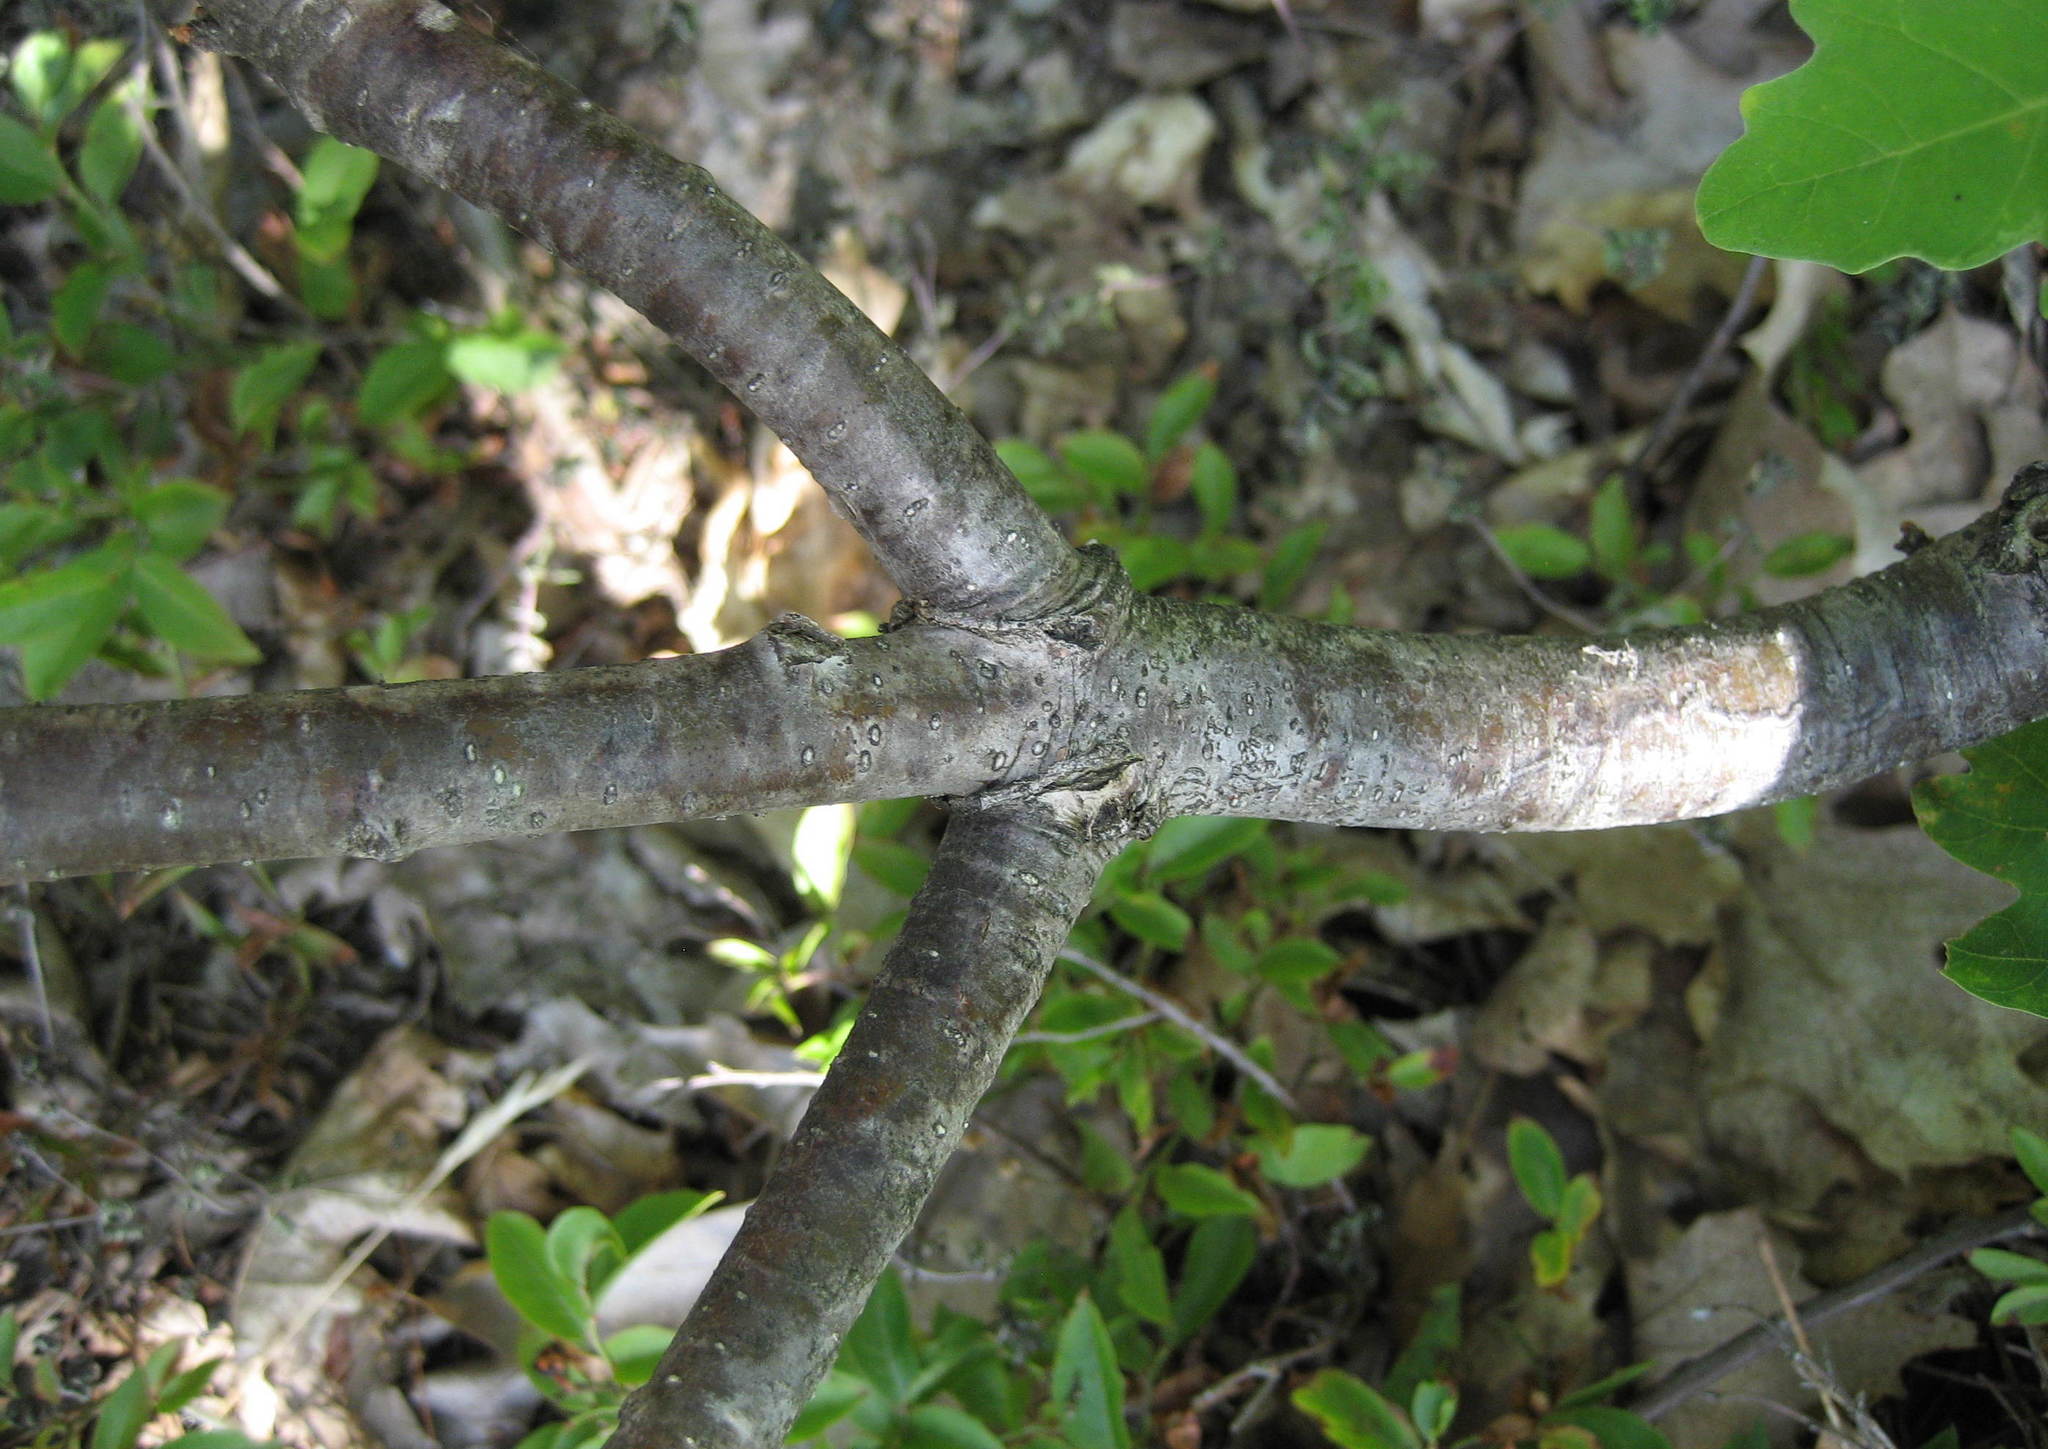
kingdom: Plantae
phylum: Tracheophyta
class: Magnoliopsida
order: Fagales
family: Fagaceae
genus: Quercus
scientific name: Quercus alba
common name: White oak
